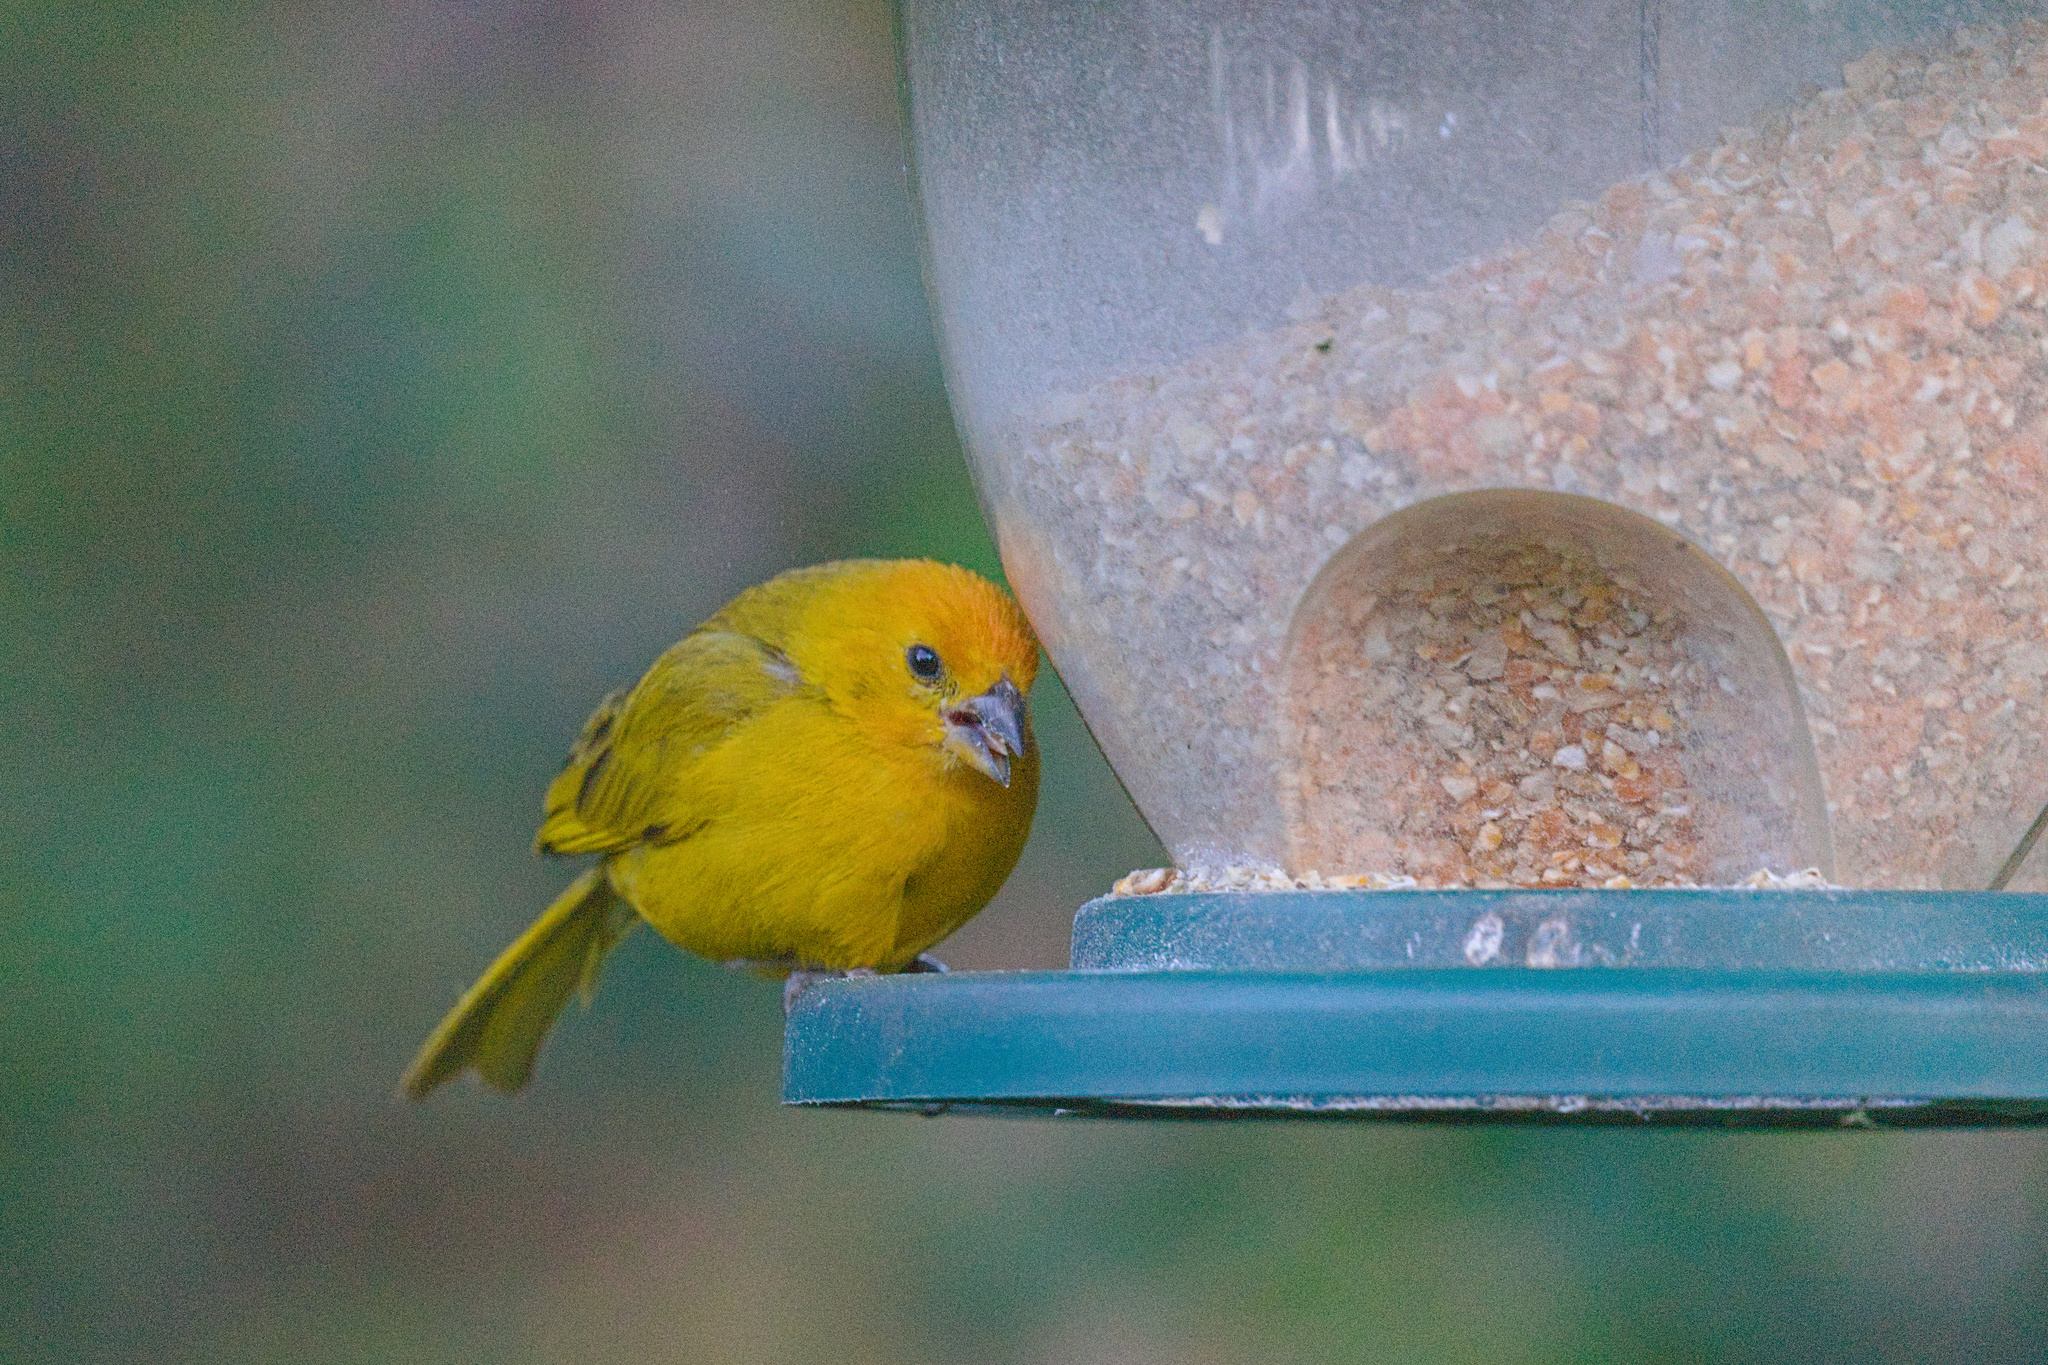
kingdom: Animalia
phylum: Chordata
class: Aves
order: Passeriformes
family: Thraupidae
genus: Sicalis
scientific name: Sicalis flaveola
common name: Saffron finch
